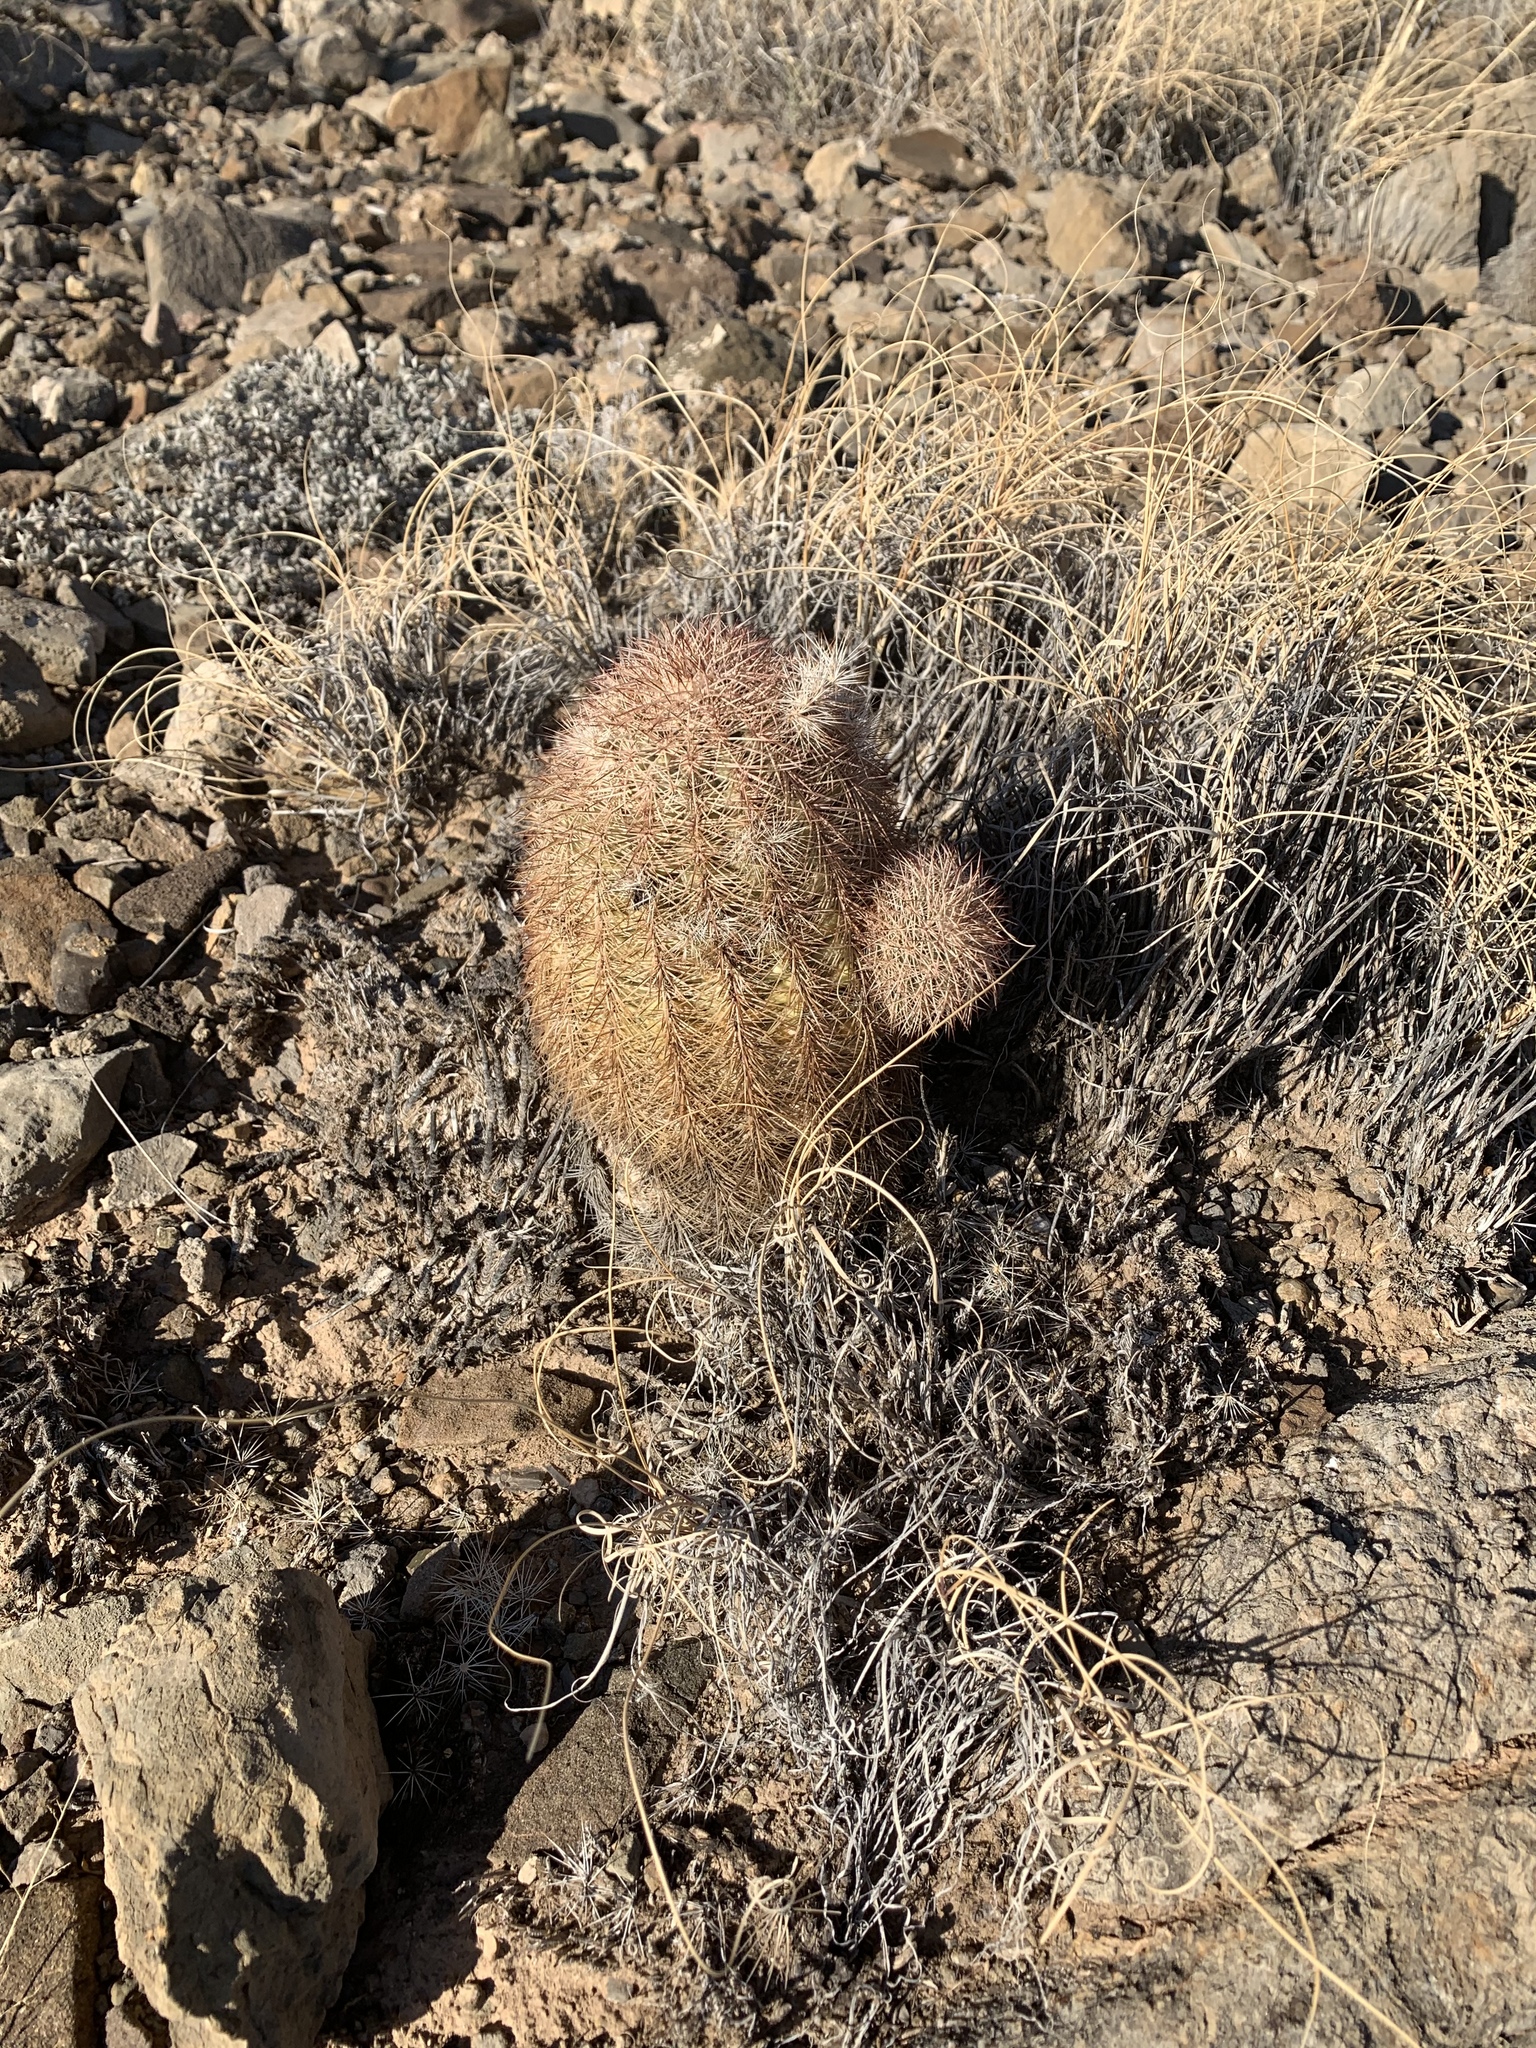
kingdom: Plantae
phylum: Tracheophyta
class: Magnoliopsida
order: Caryophyllales
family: Cactaceae
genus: Echinocereus
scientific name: Echinocereus dasyacanthus
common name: Spiny hedgehog cactus
